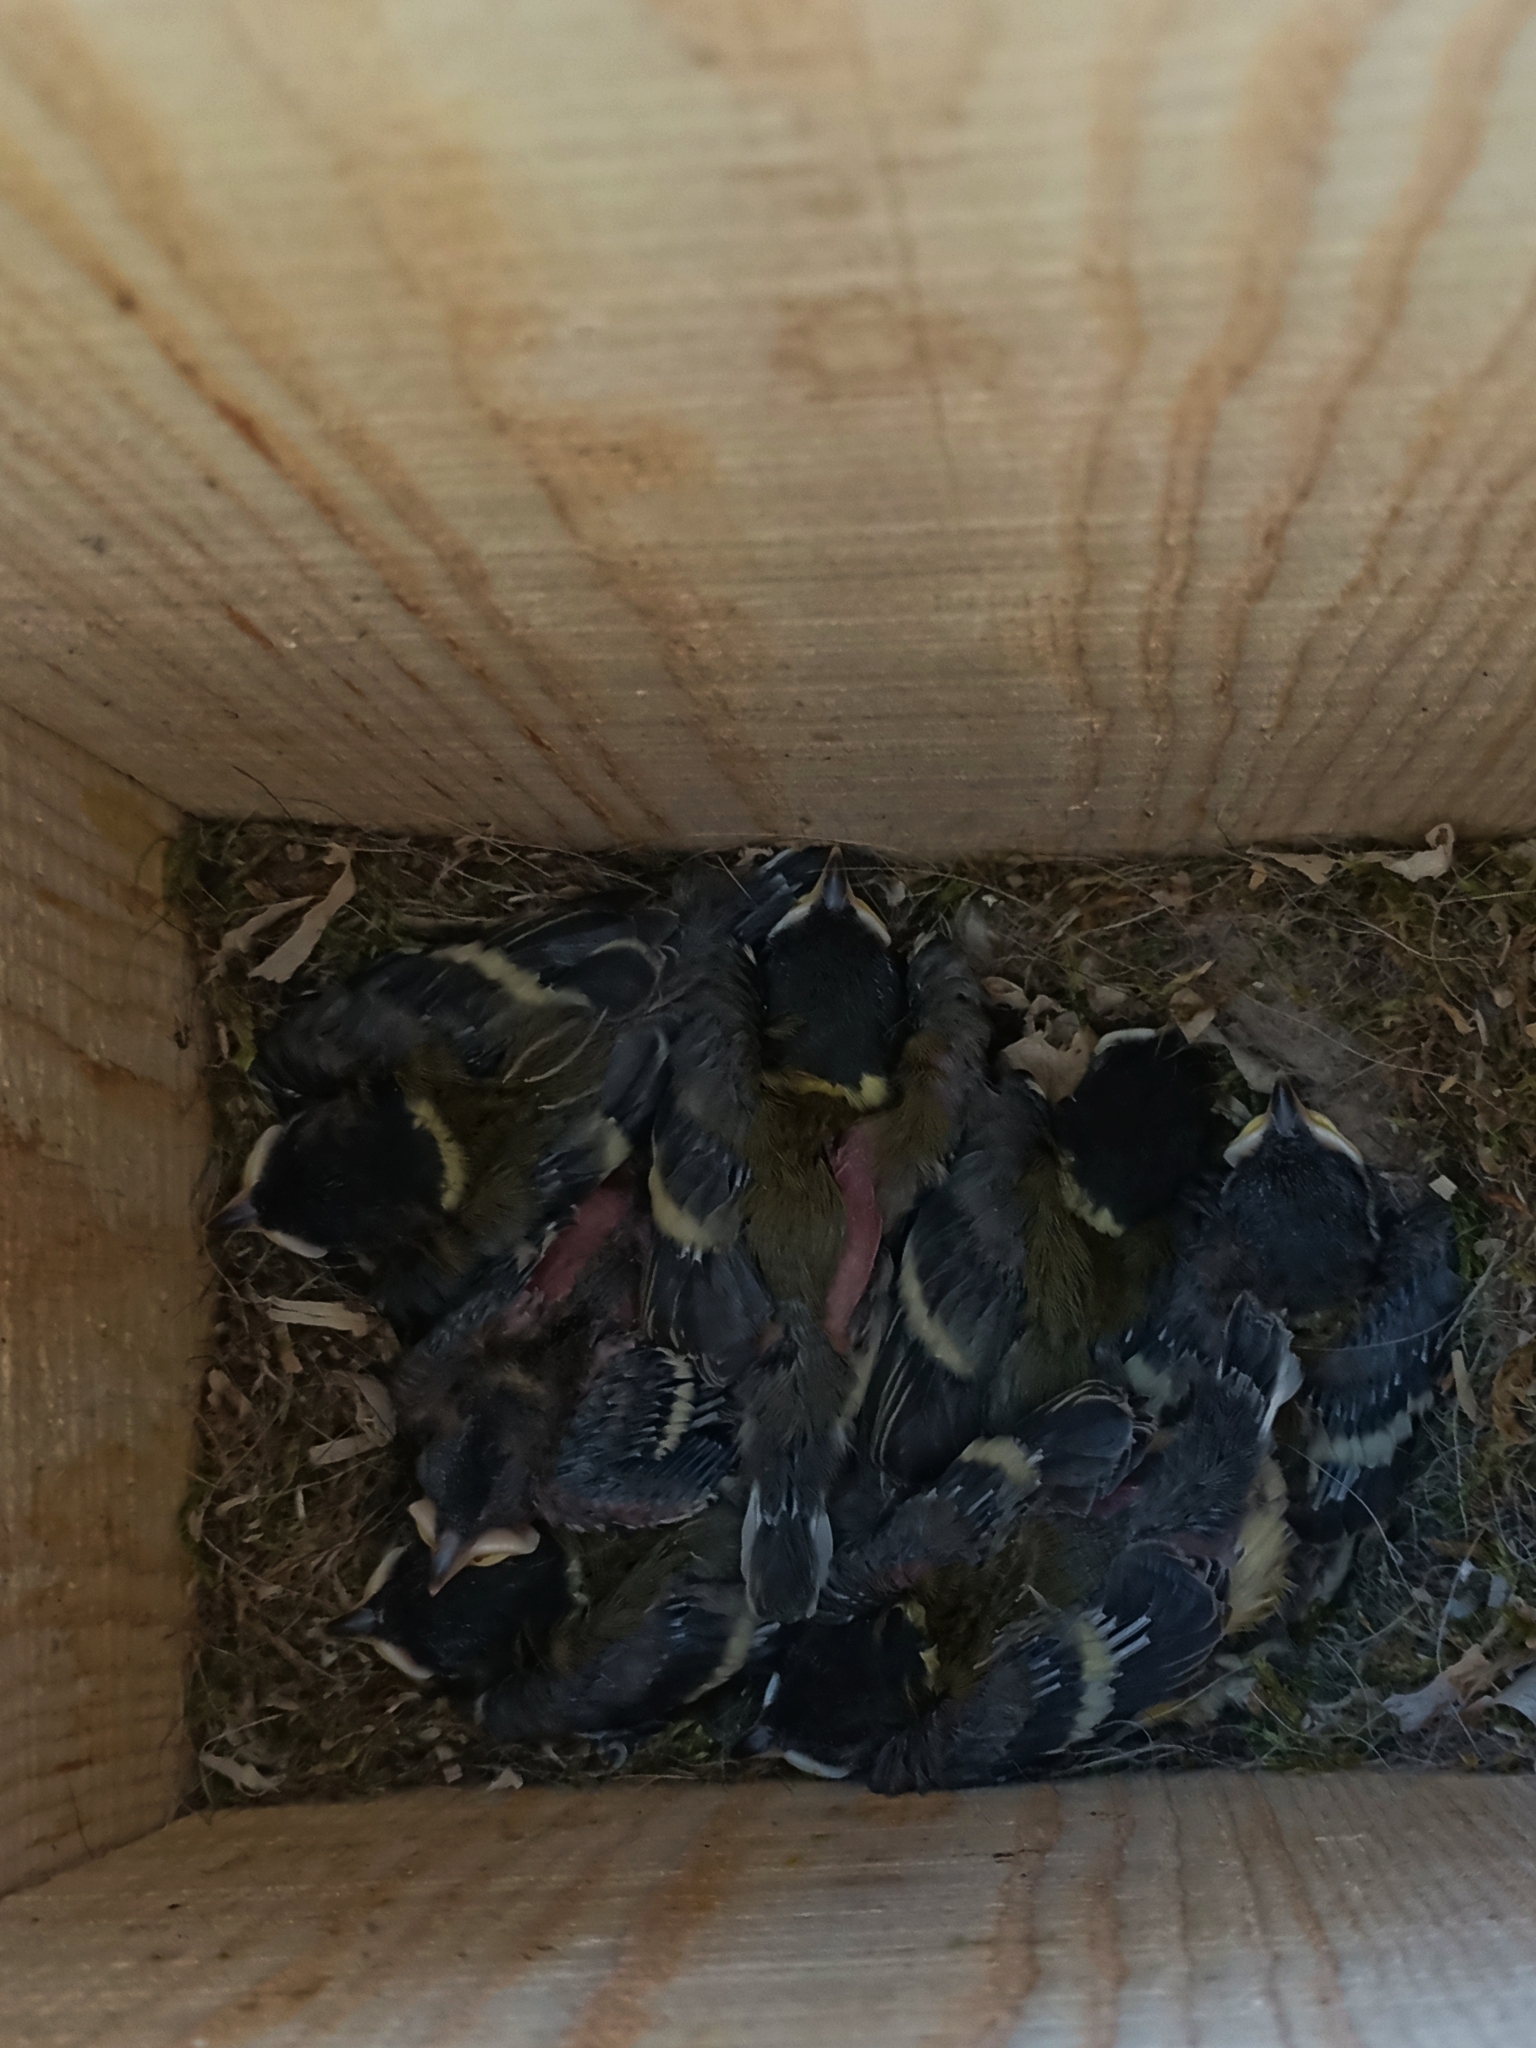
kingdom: Animalia
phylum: Chordata
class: Aves
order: Passeriformes
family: Paridae
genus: Parus
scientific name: Parus major
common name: Great tit
